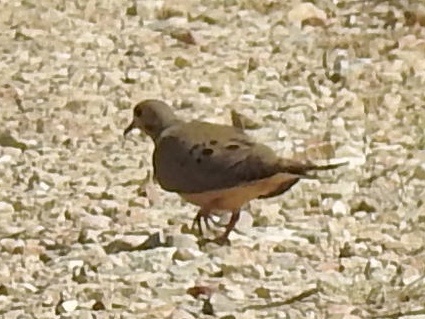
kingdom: Animalia
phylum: Chordata
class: Aves
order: Columbiformes
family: Columbidae
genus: Zenaida
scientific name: Zenaida macroura
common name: Mourning dove
